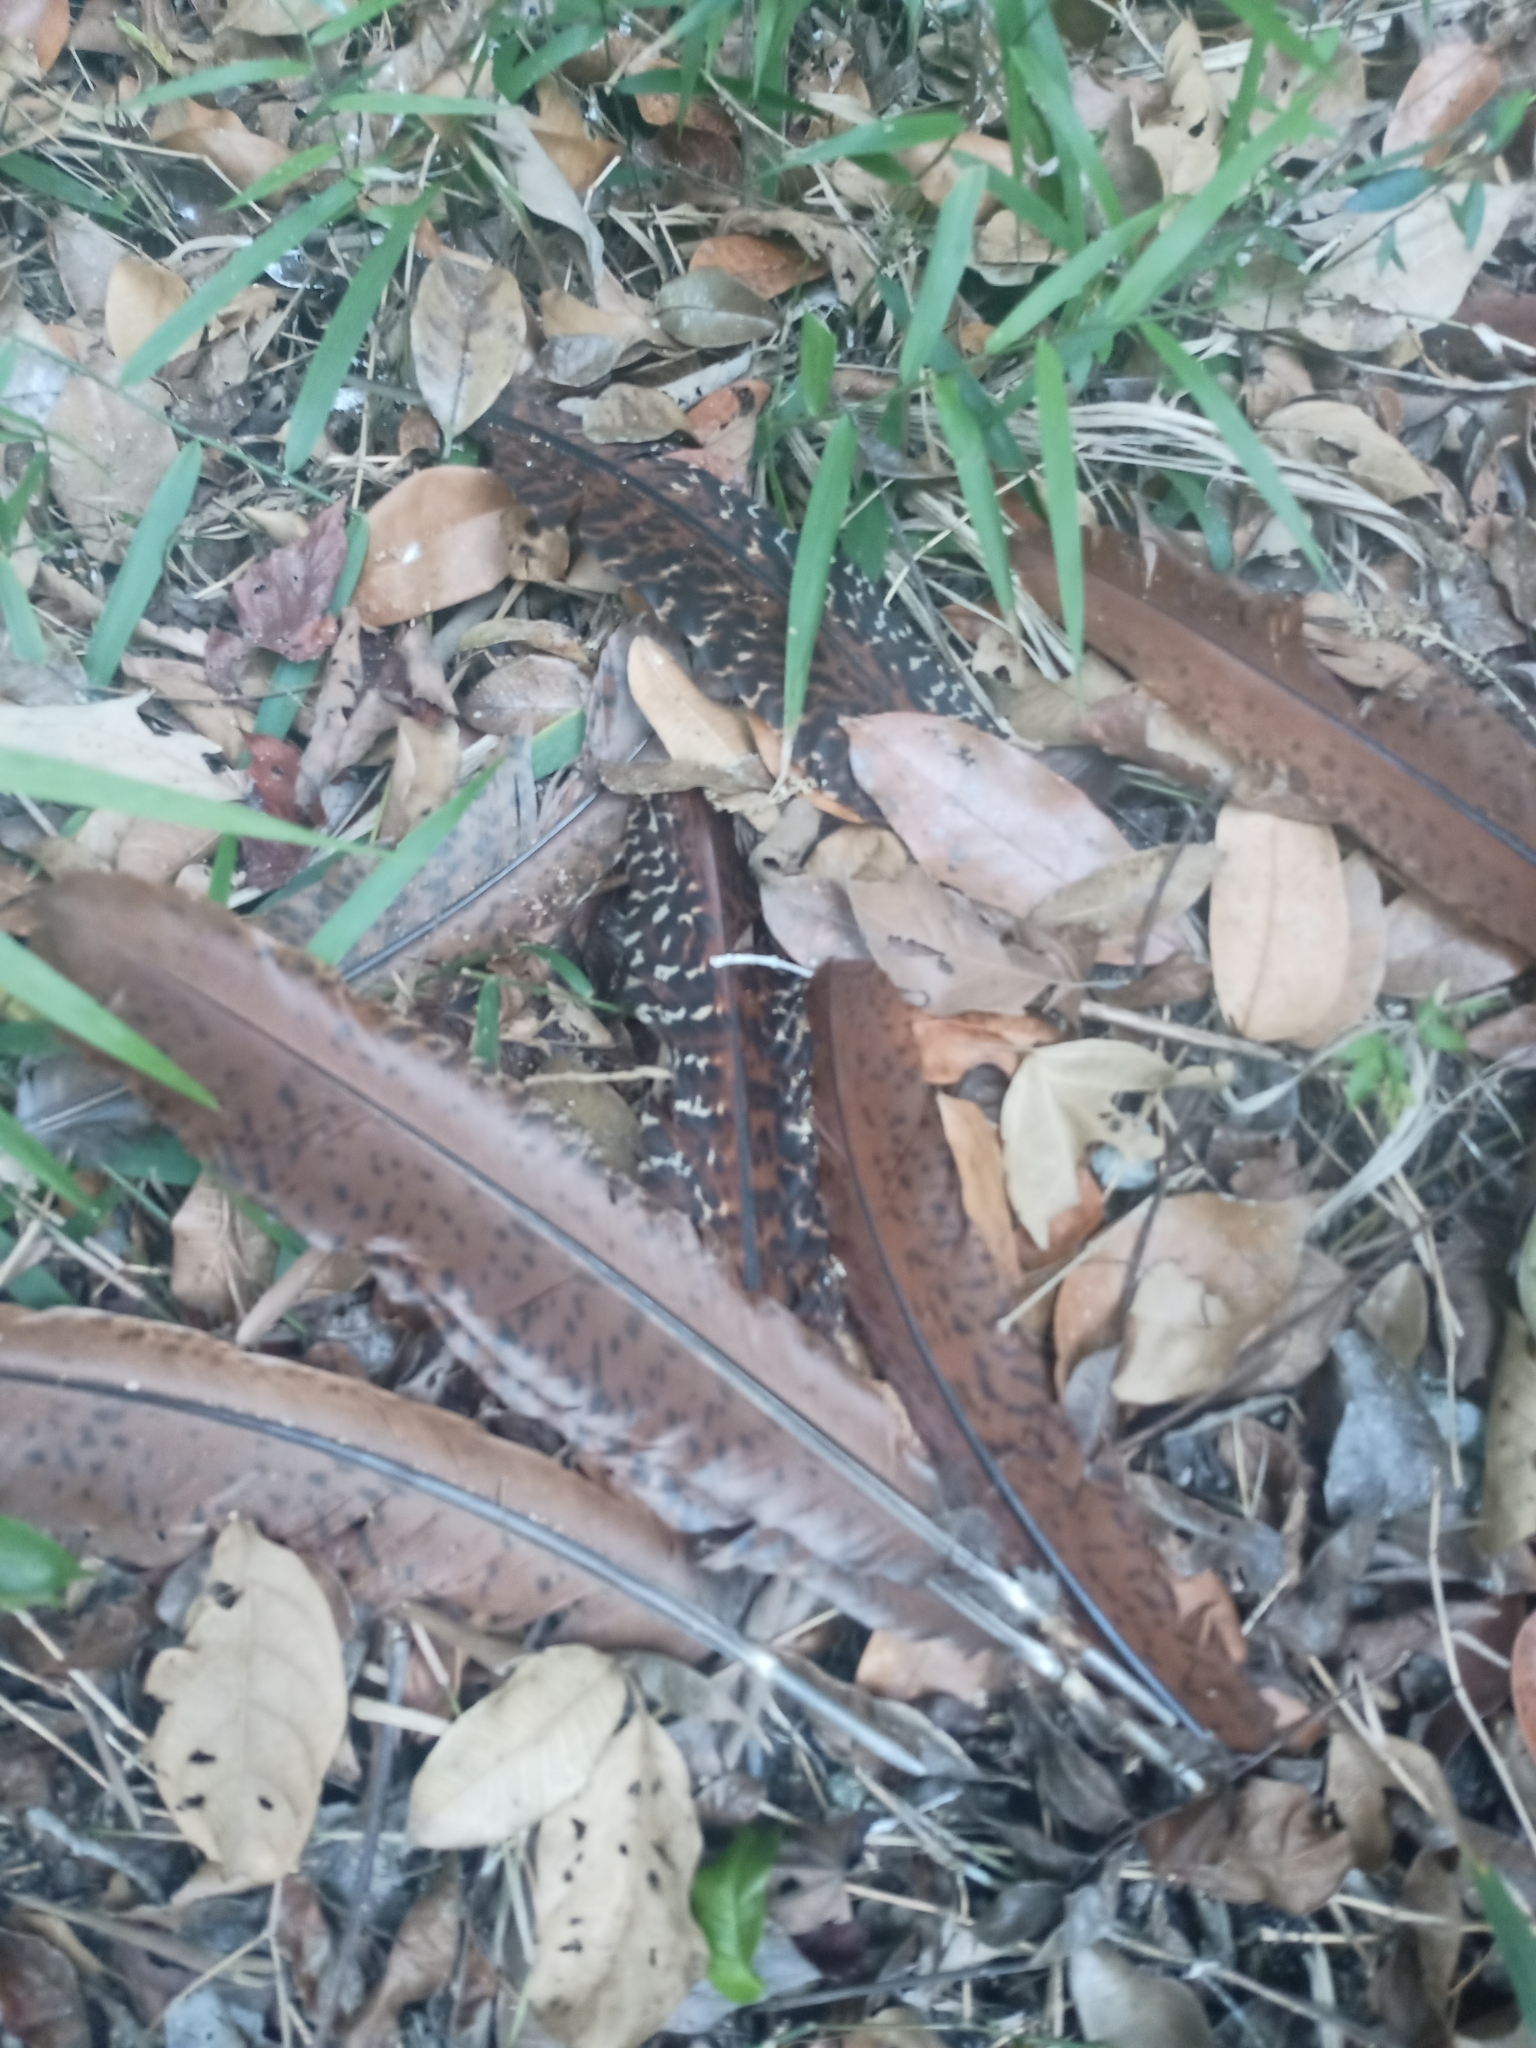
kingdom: Animalia
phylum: Chordata
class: Aves
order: Galliformes
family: Cracidae
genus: Crax
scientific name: Crax rubra
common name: Great curassow
